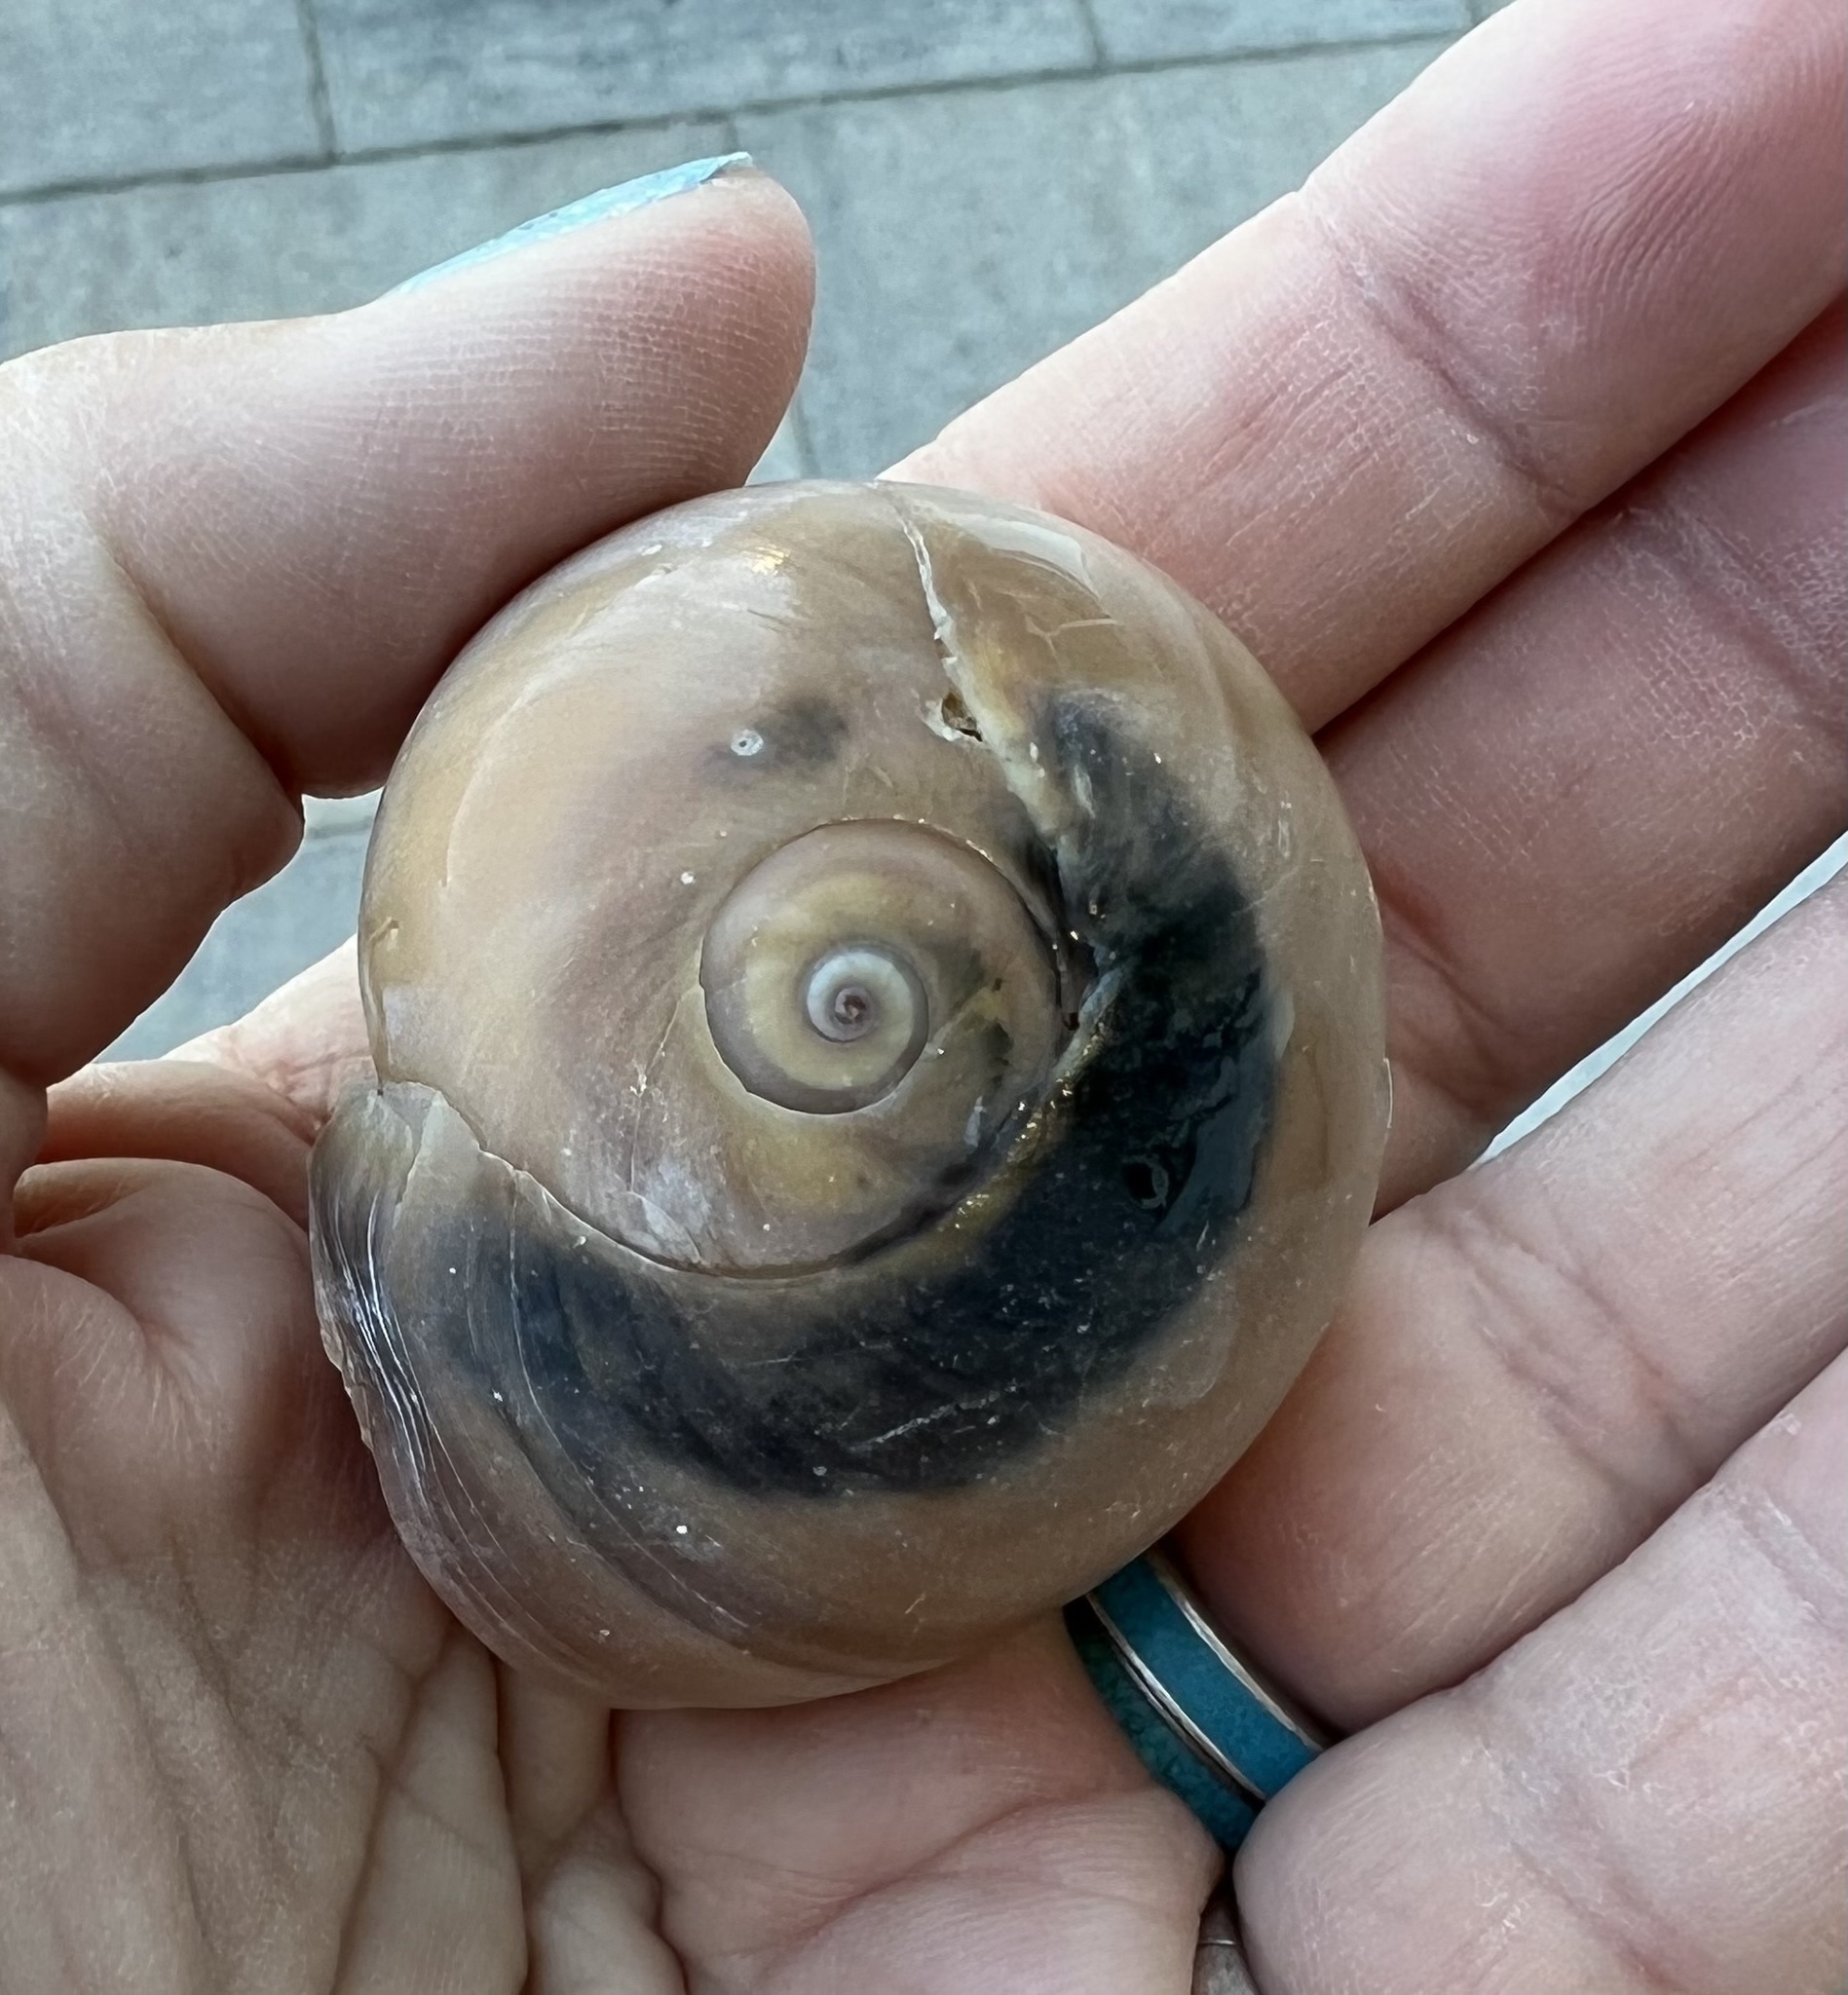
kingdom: Animalia
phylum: Mollusca
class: Gastropoda
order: Littorinimorpha
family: Naticidae
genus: Neverita
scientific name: Neverita duplicata
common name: Lobed moonsnail
